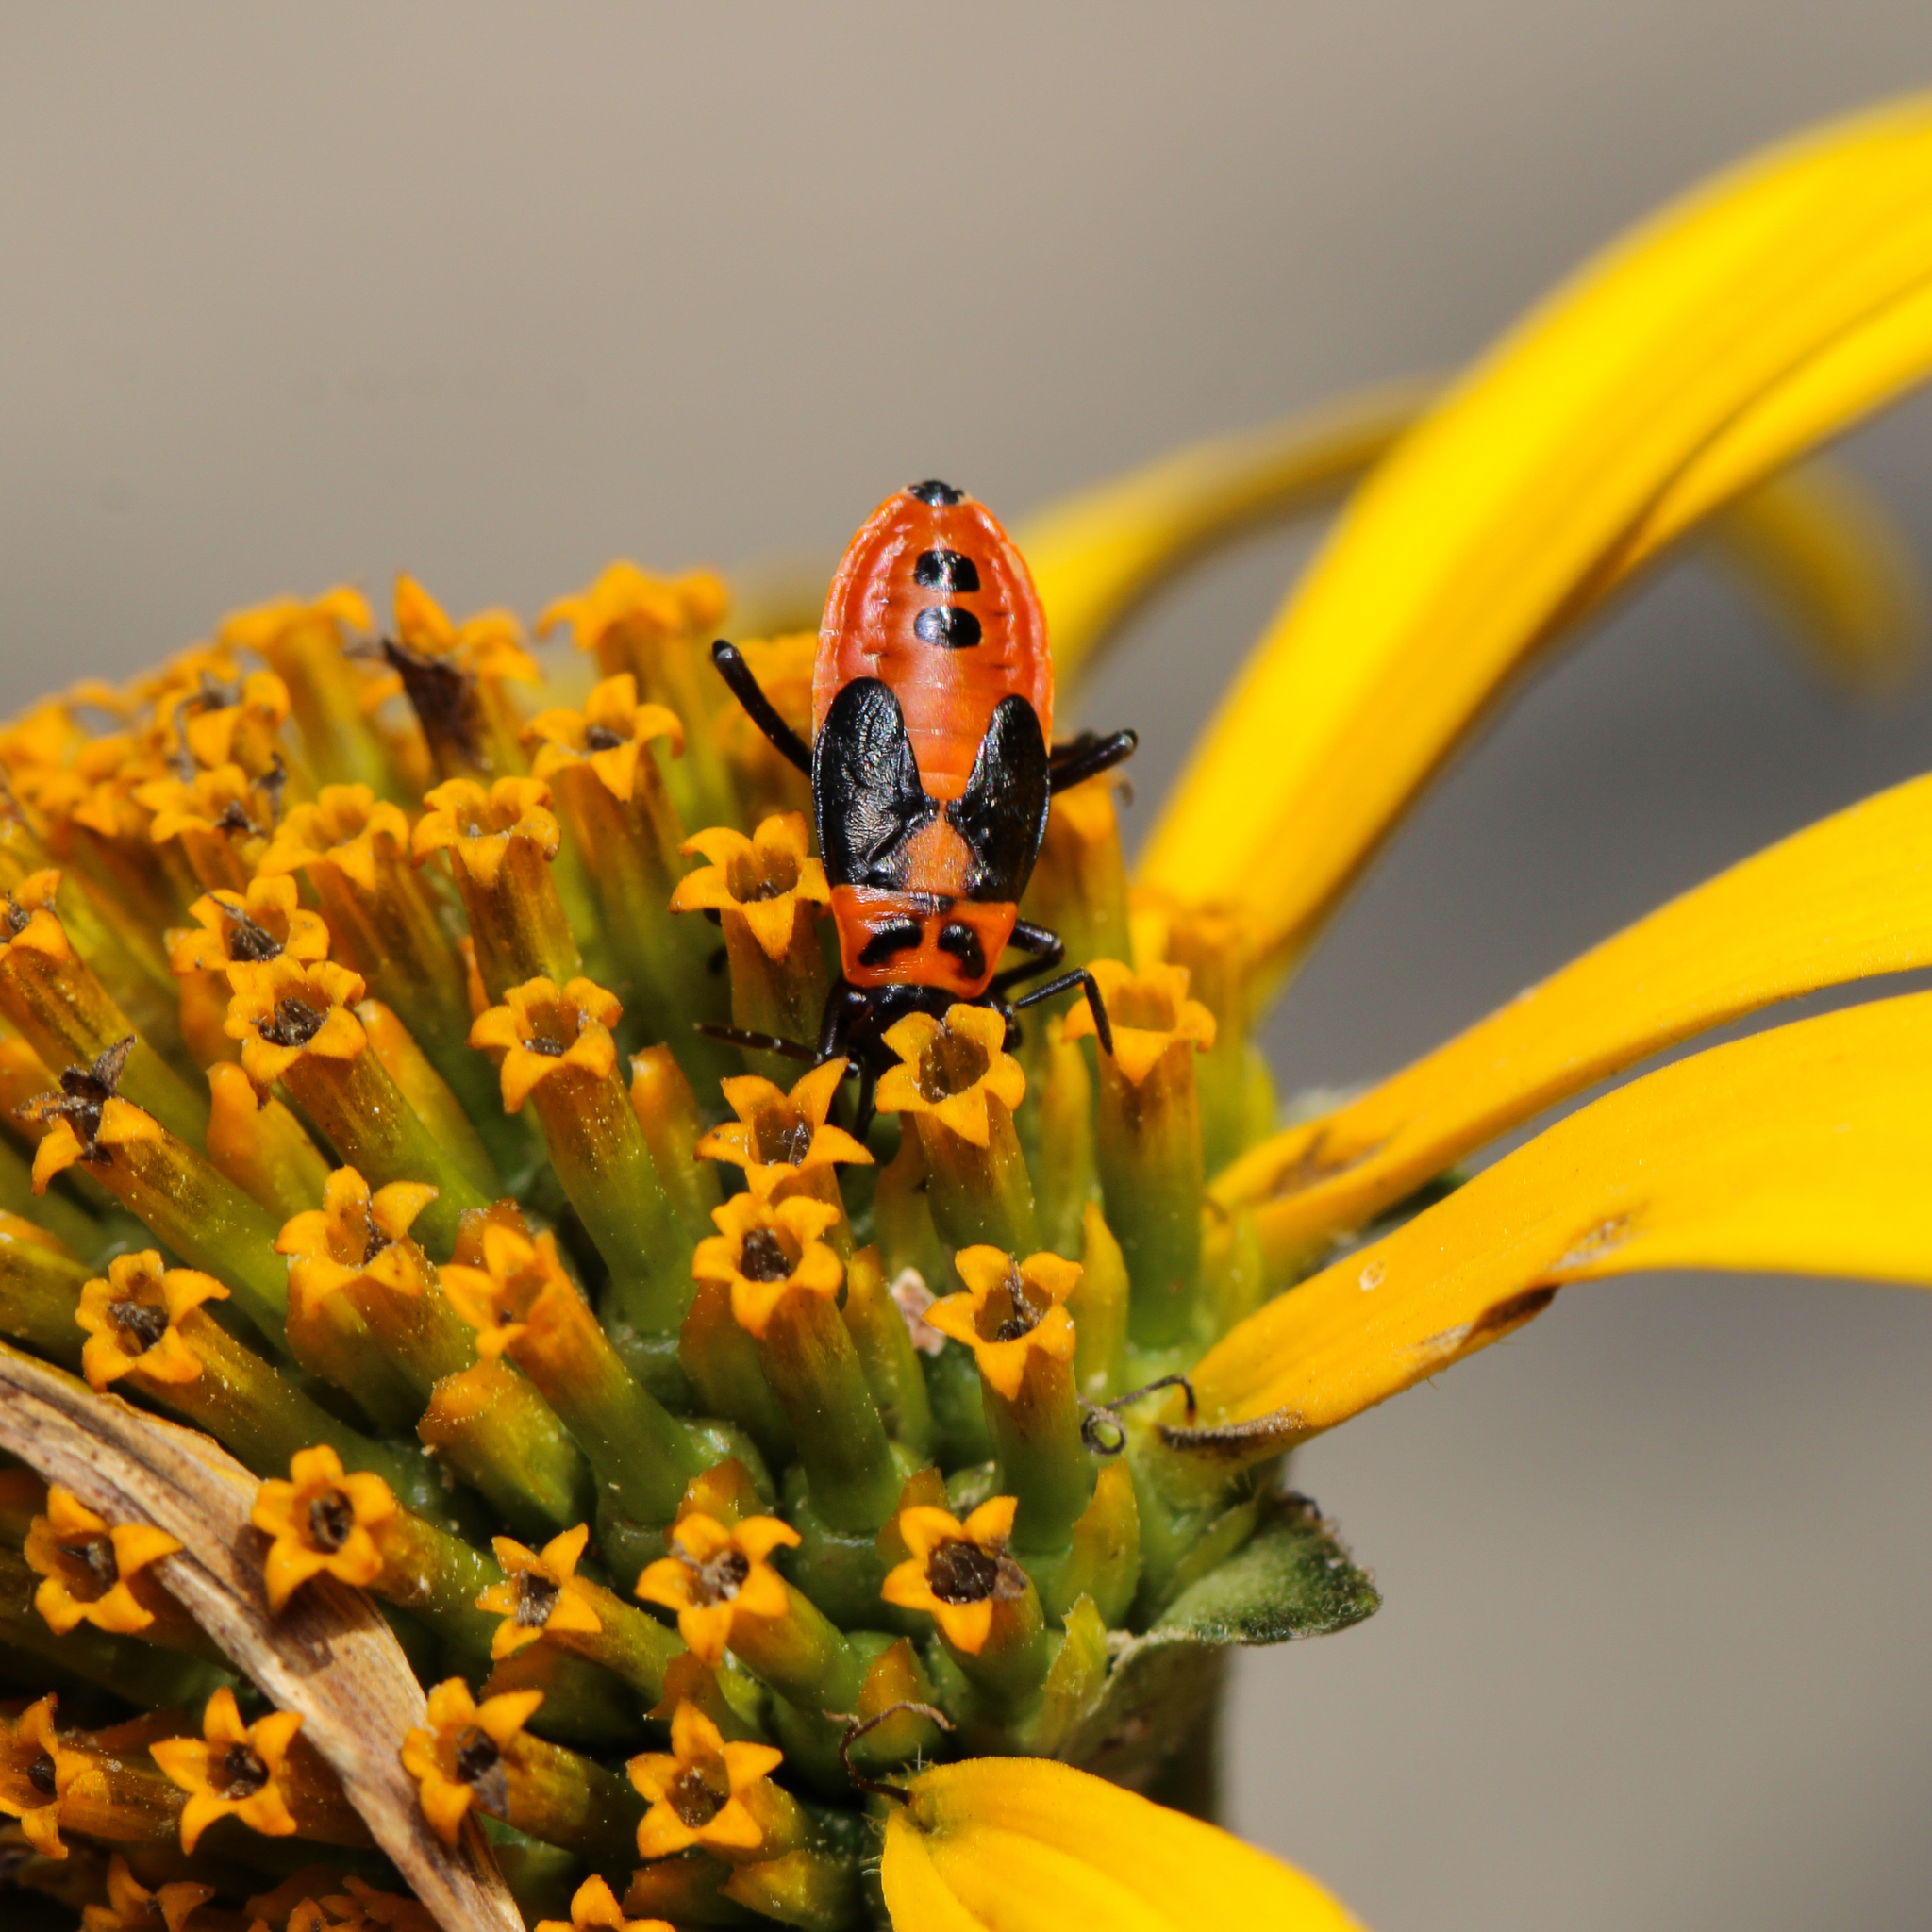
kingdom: Animalia
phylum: Arthropoda
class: Insecta
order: Hemiptera
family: Lygaeidae
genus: Lygaeus
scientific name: Lygaeus turcicus
